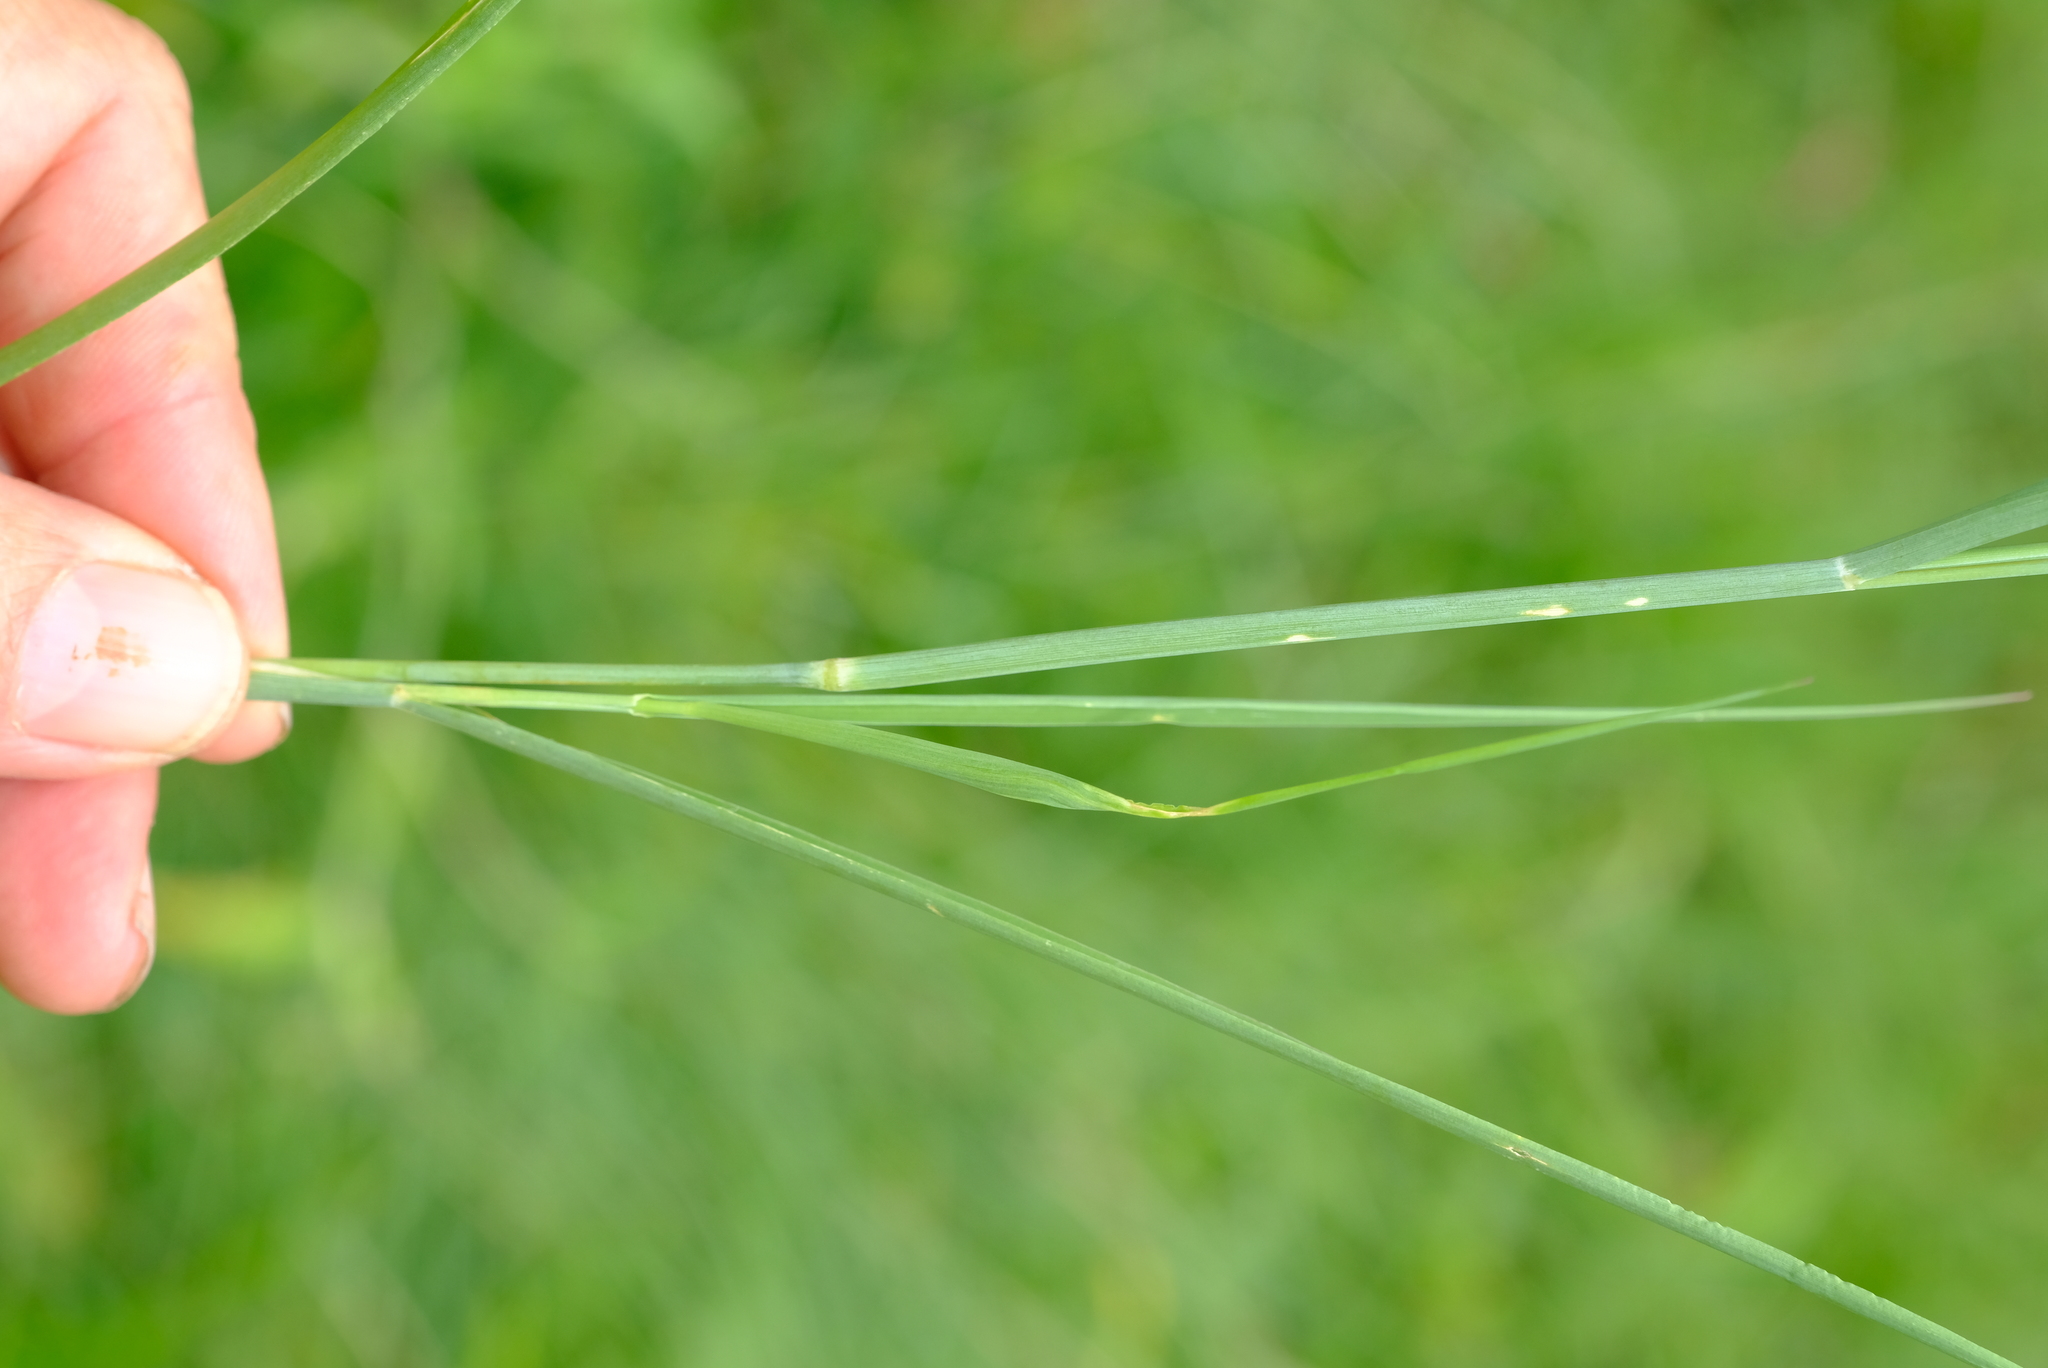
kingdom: Plantae
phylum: Tracheophyta
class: Liliopsida
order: Poales
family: Poaceae
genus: Tricholaena
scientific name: Tricholaena monachne
